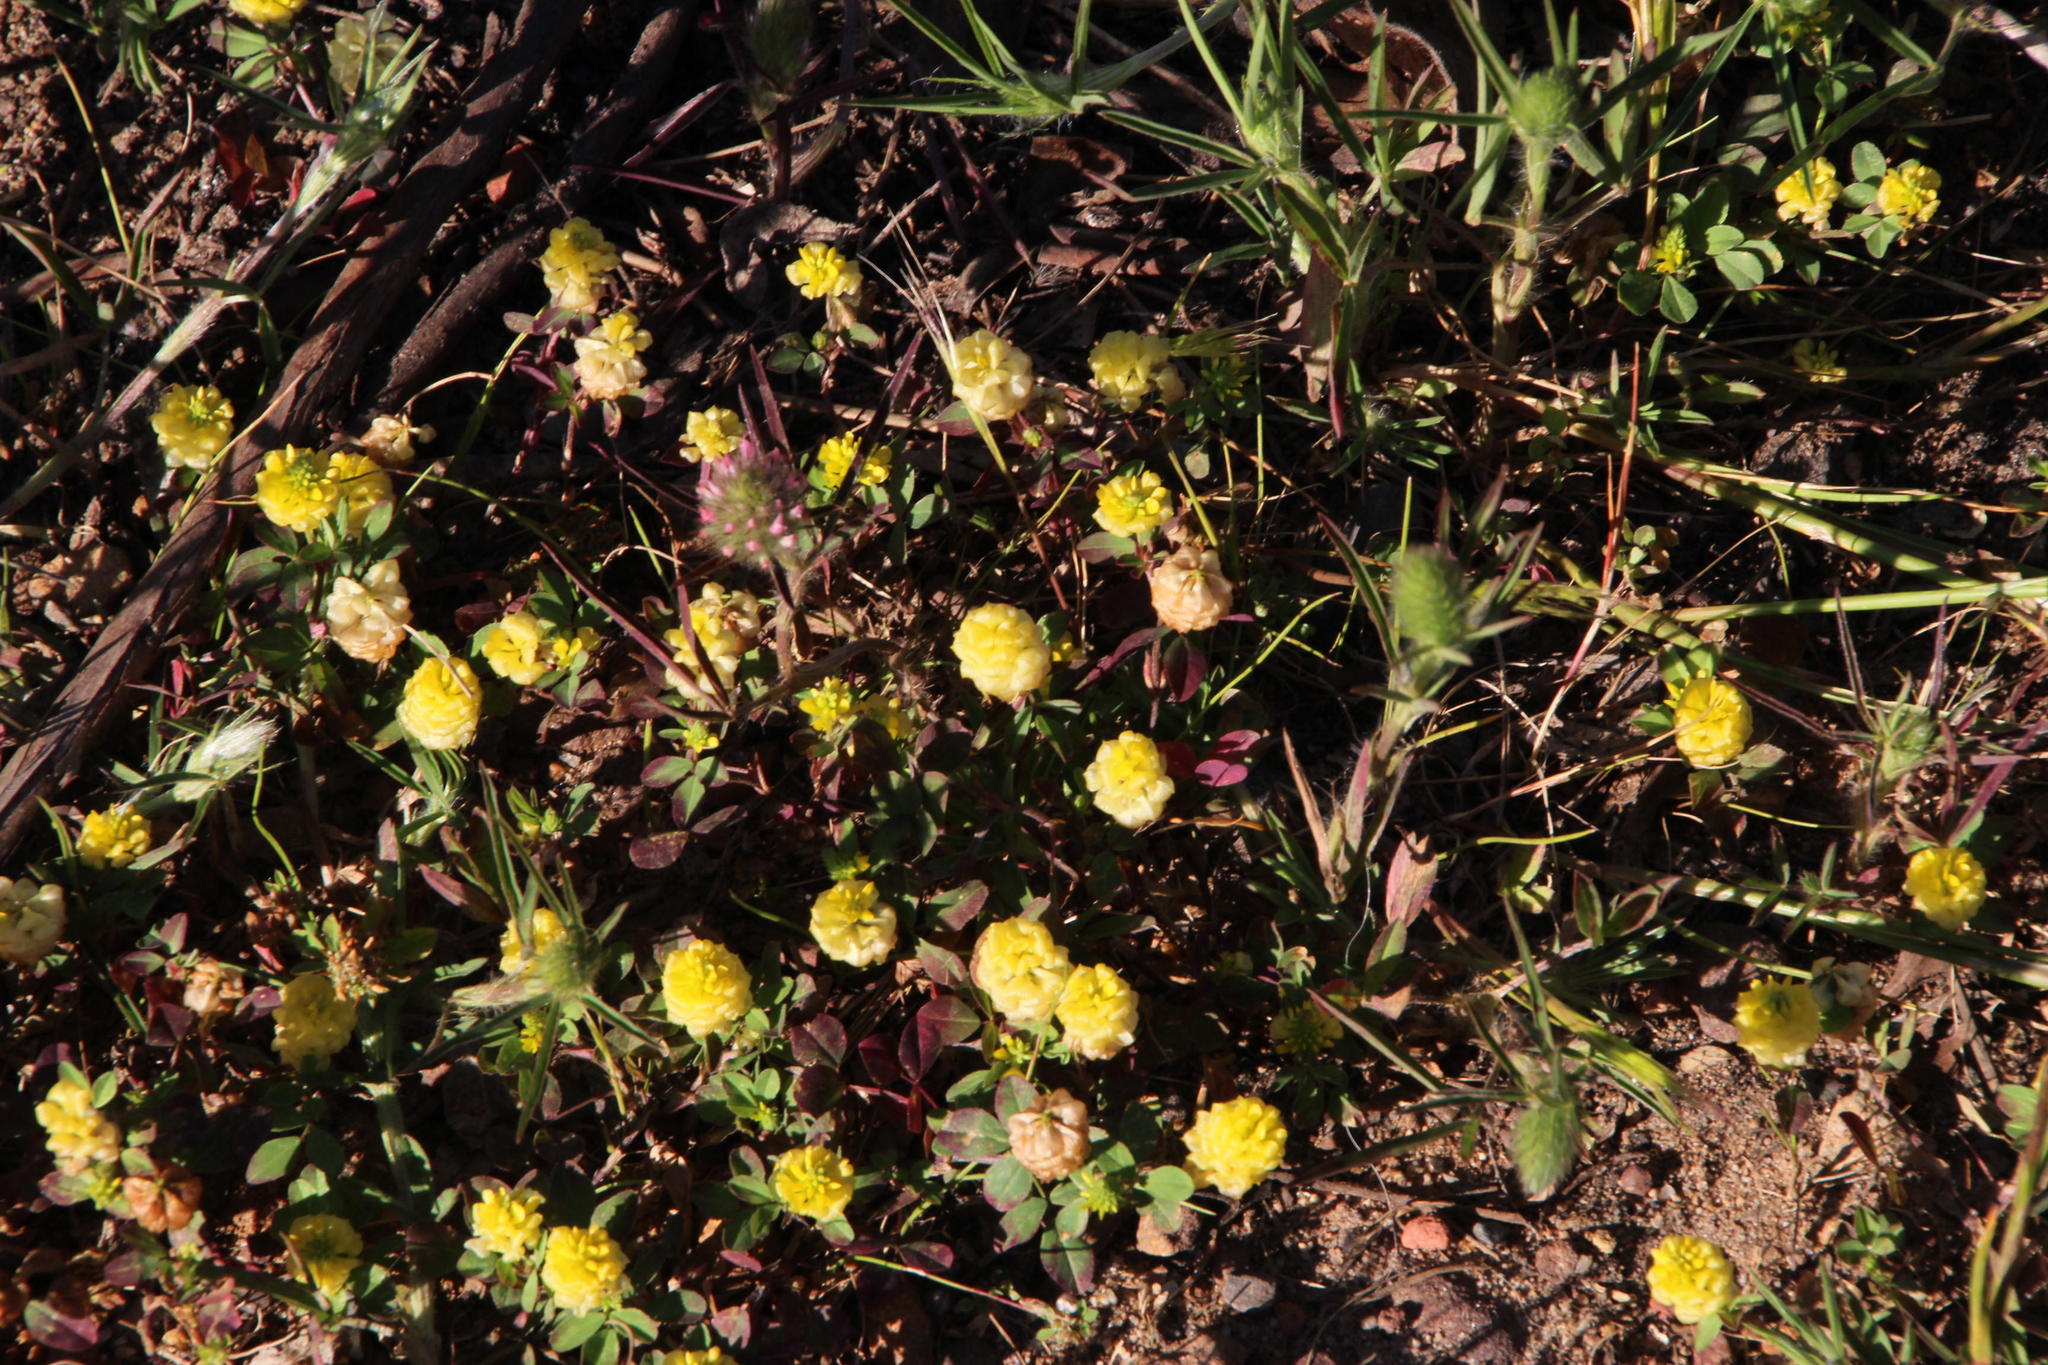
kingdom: Plantae
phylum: Tracheophyta
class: Magnoliopsida
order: Fabales
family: Fabaceae
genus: Trifolium
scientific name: Trifolium campestre
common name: Field clover
